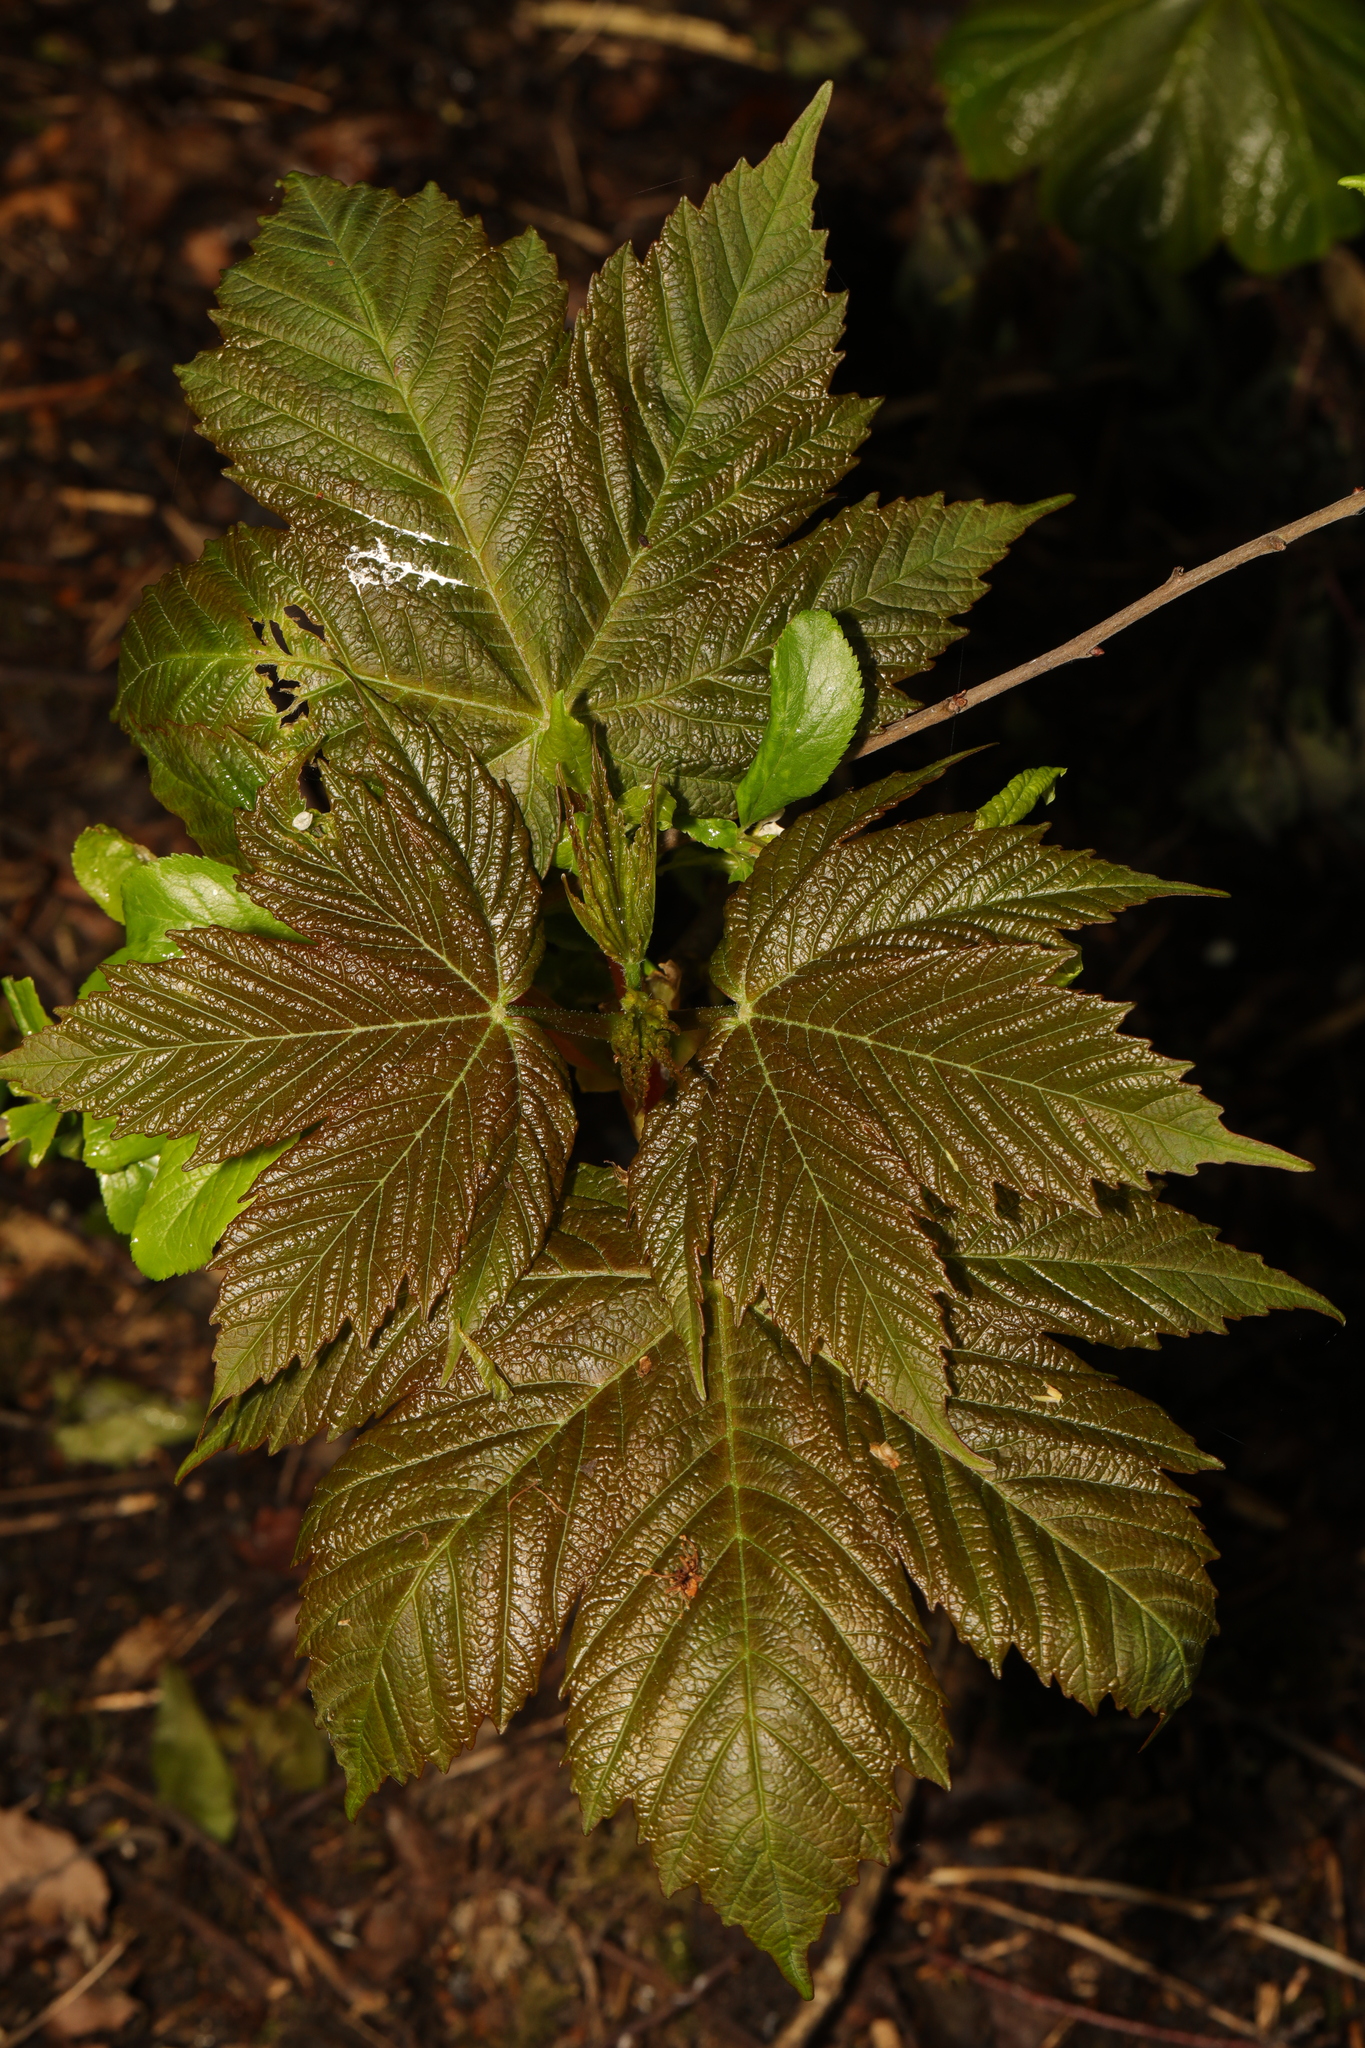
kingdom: Plantae
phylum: Tracheophyta
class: Magnoliopsida
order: Sapindales
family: Sapindaceae
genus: Acer
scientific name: Acer pseudoplatanus
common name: Sycamore
